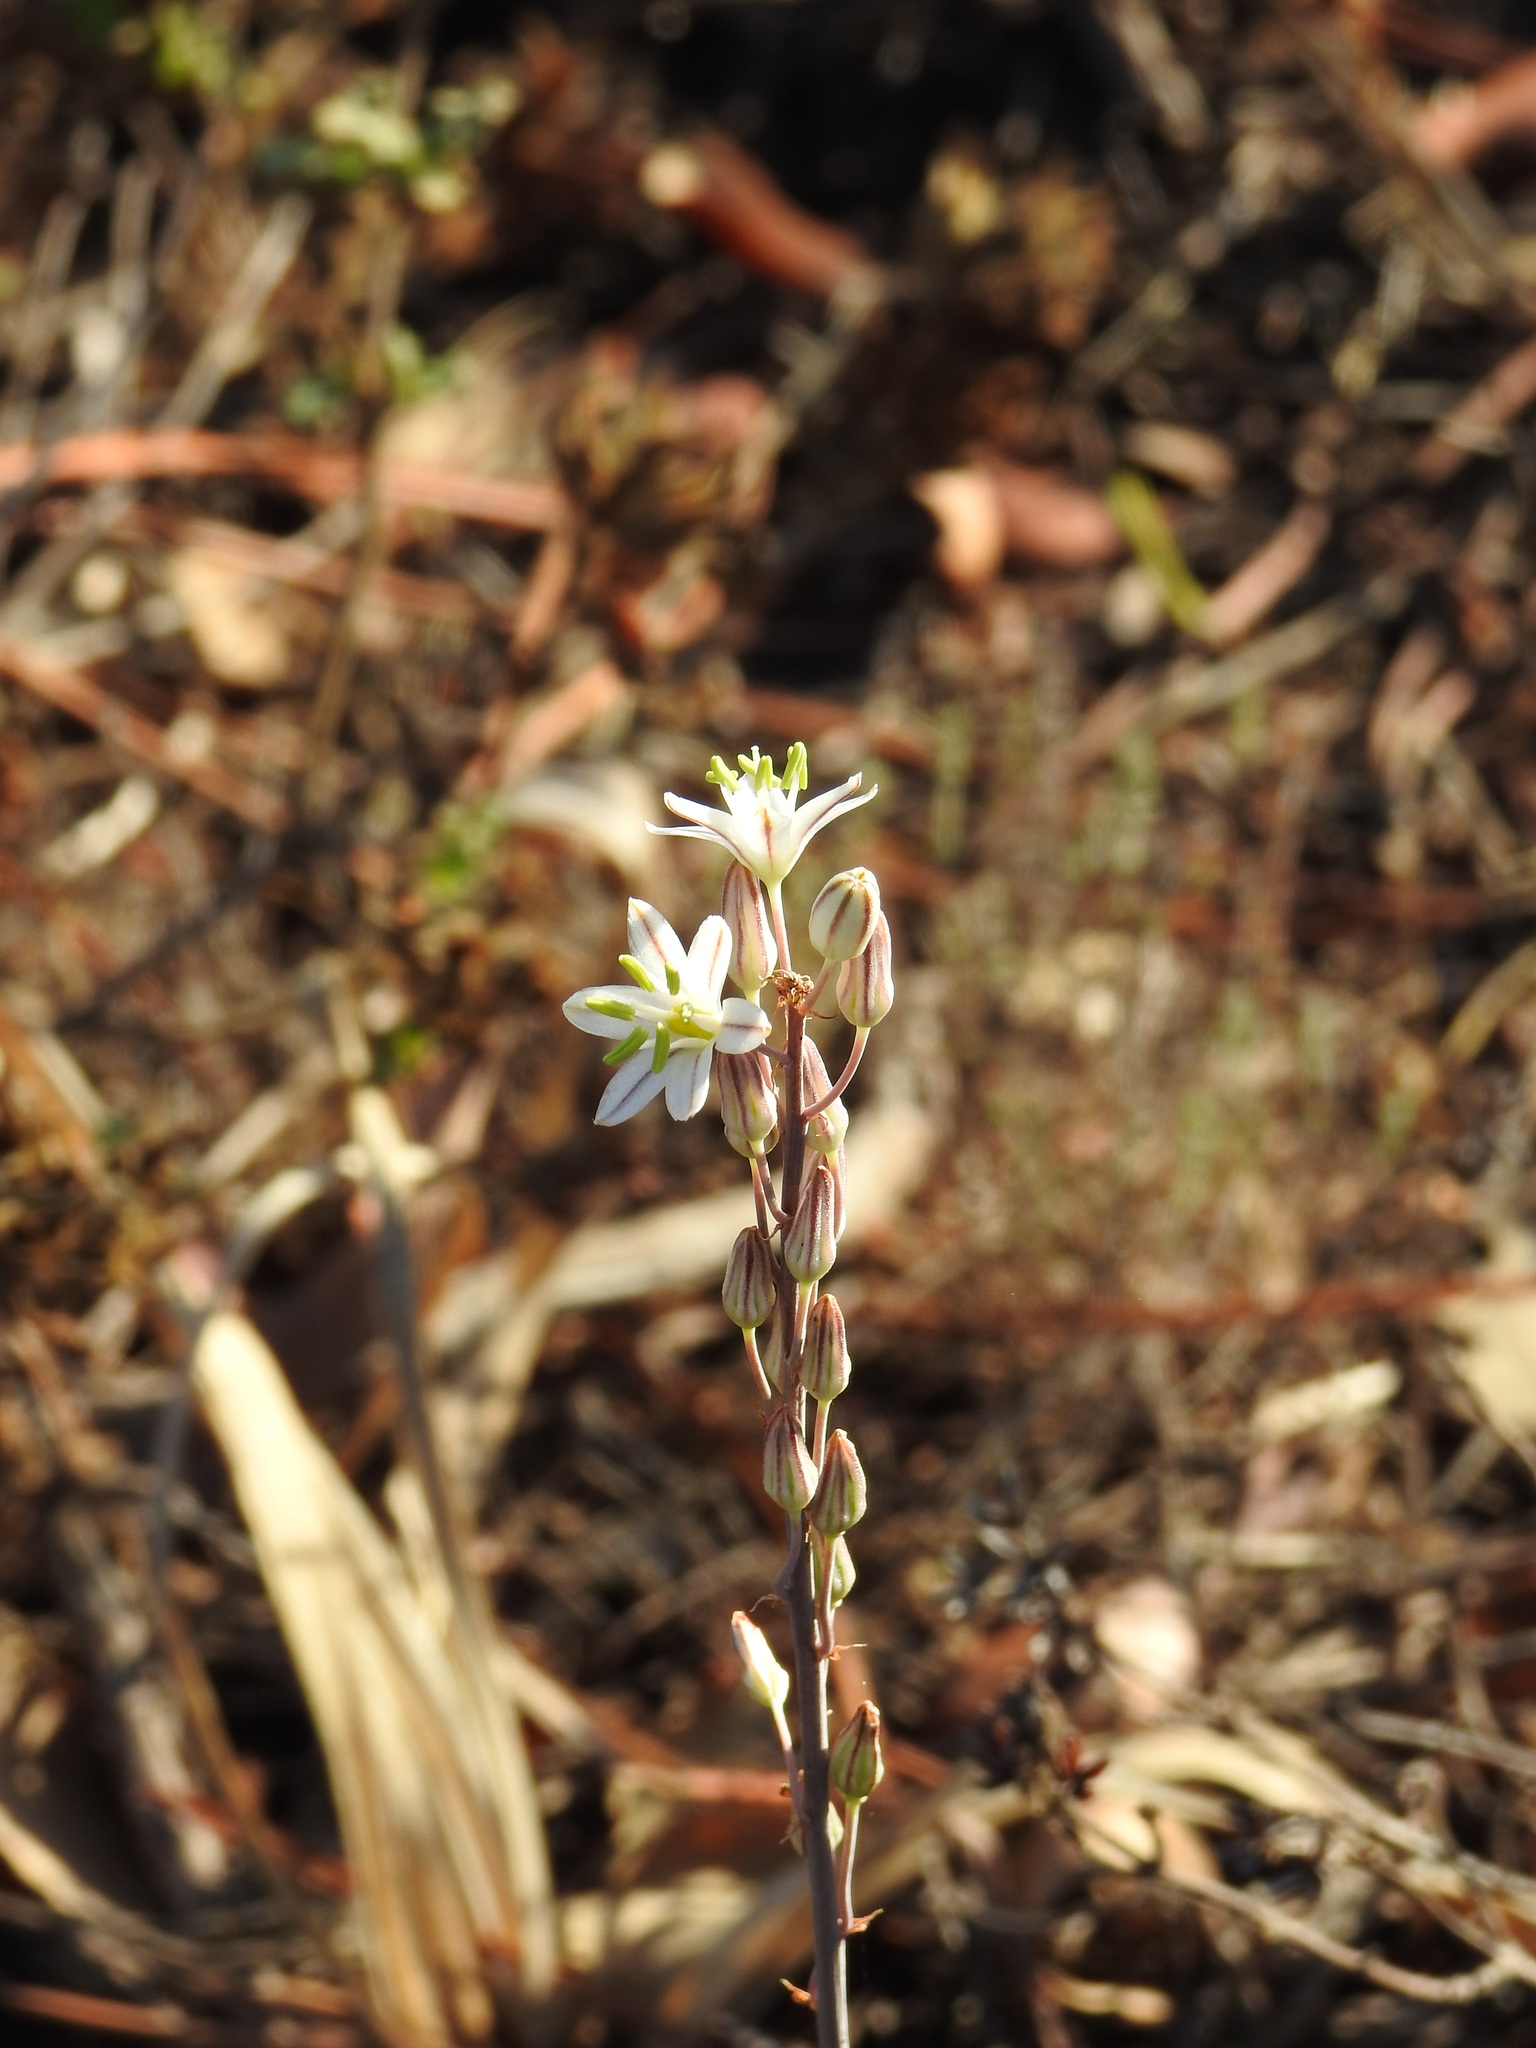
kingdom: Plantae
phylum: Tracheophyta
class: Liliopsida
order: Asparagales
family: Asparagaceae
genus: Drimia
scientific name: Drimia maritima
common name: Maritime squill
